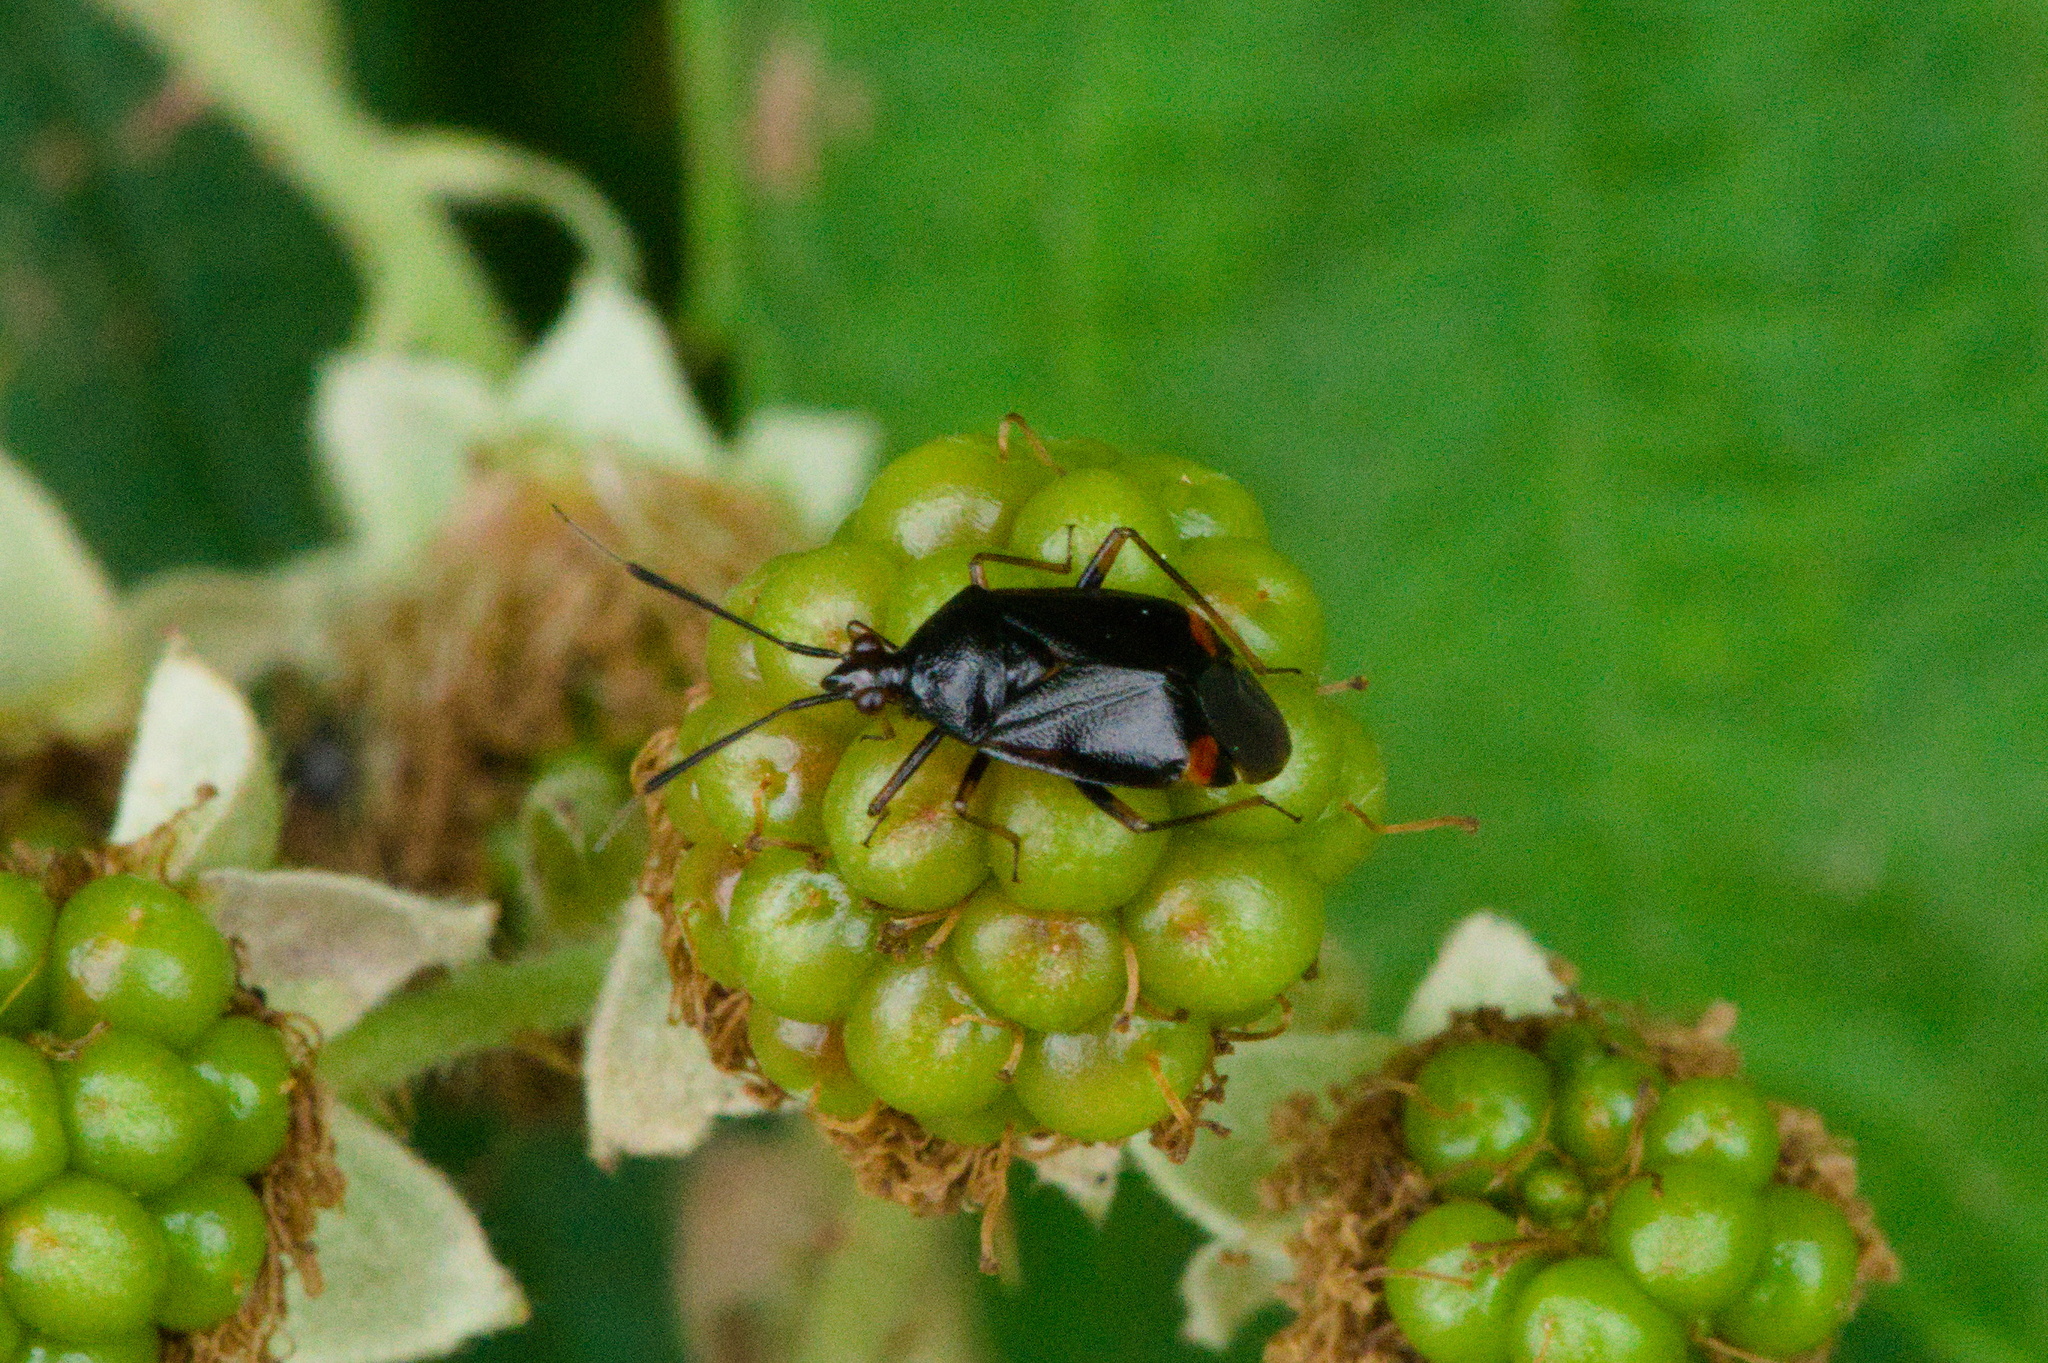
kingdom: Animalia
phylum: Arthropoda
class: Insecta
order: Hemiptera
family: Miridae
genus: Deraeocoris
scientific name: Deraeocoris ruber
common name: Plant bug
